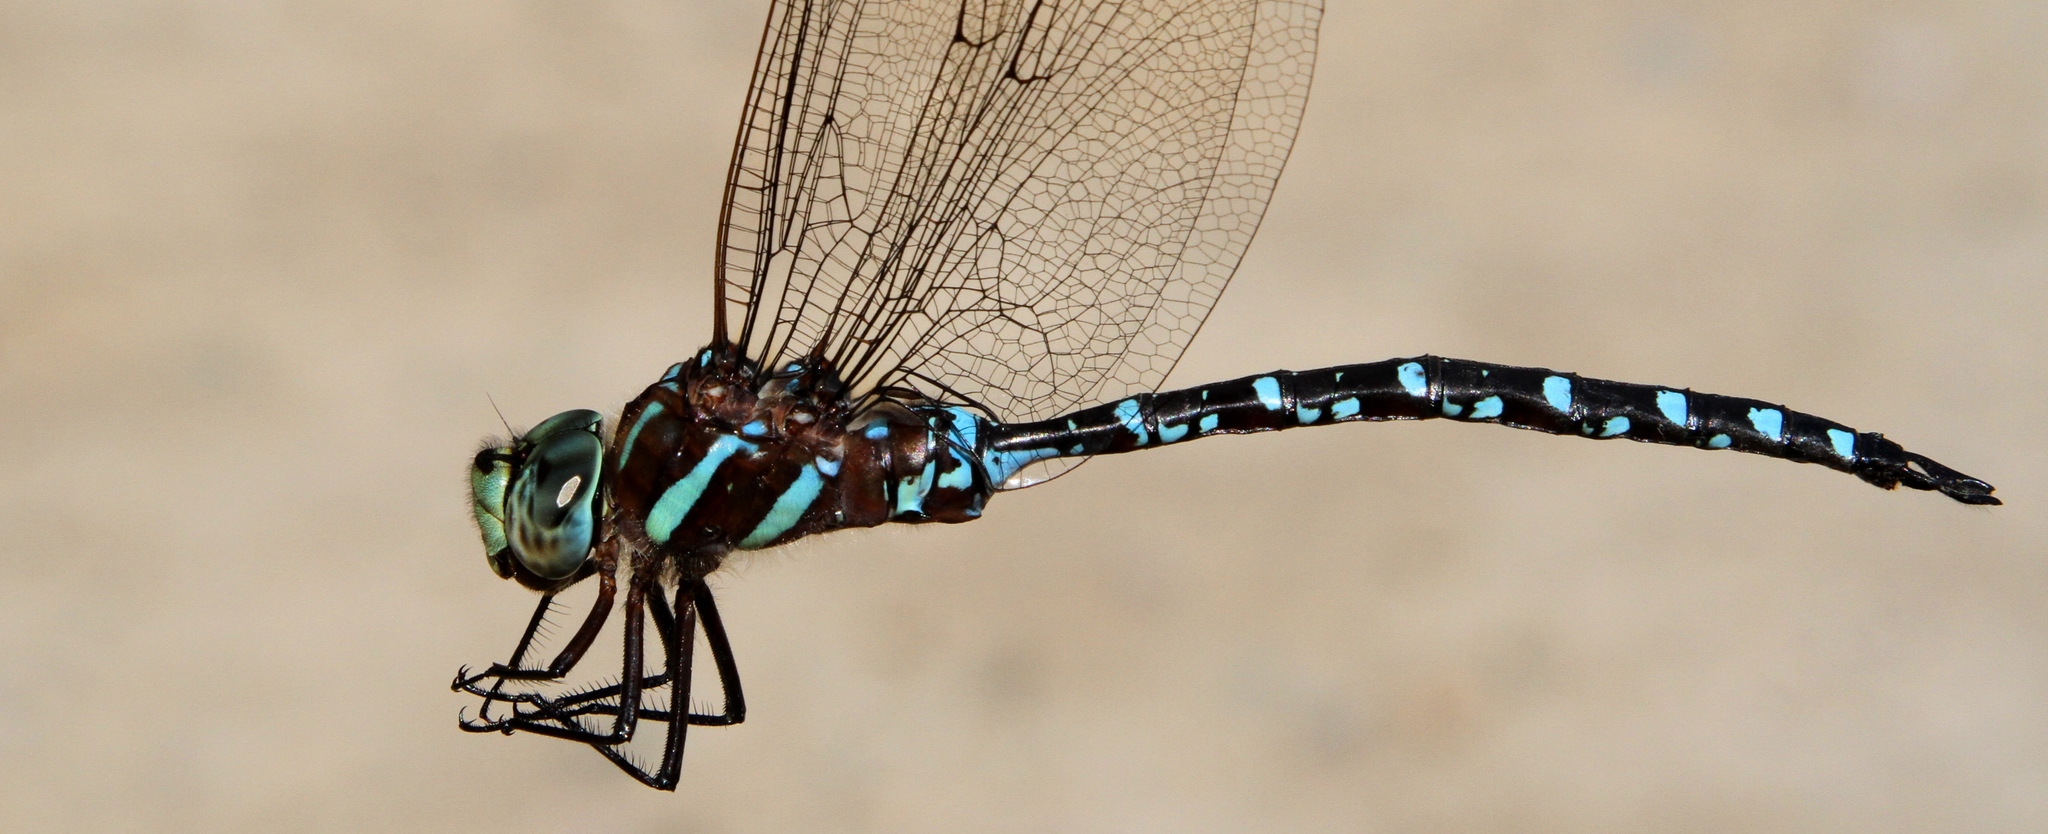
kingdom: Animalia
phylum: Arthropoda
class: Insecta
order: Odonata
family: Aeshnidae
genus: Aeshna
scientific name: Aeshna tuberculifera
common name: Aeschne à tubercules
